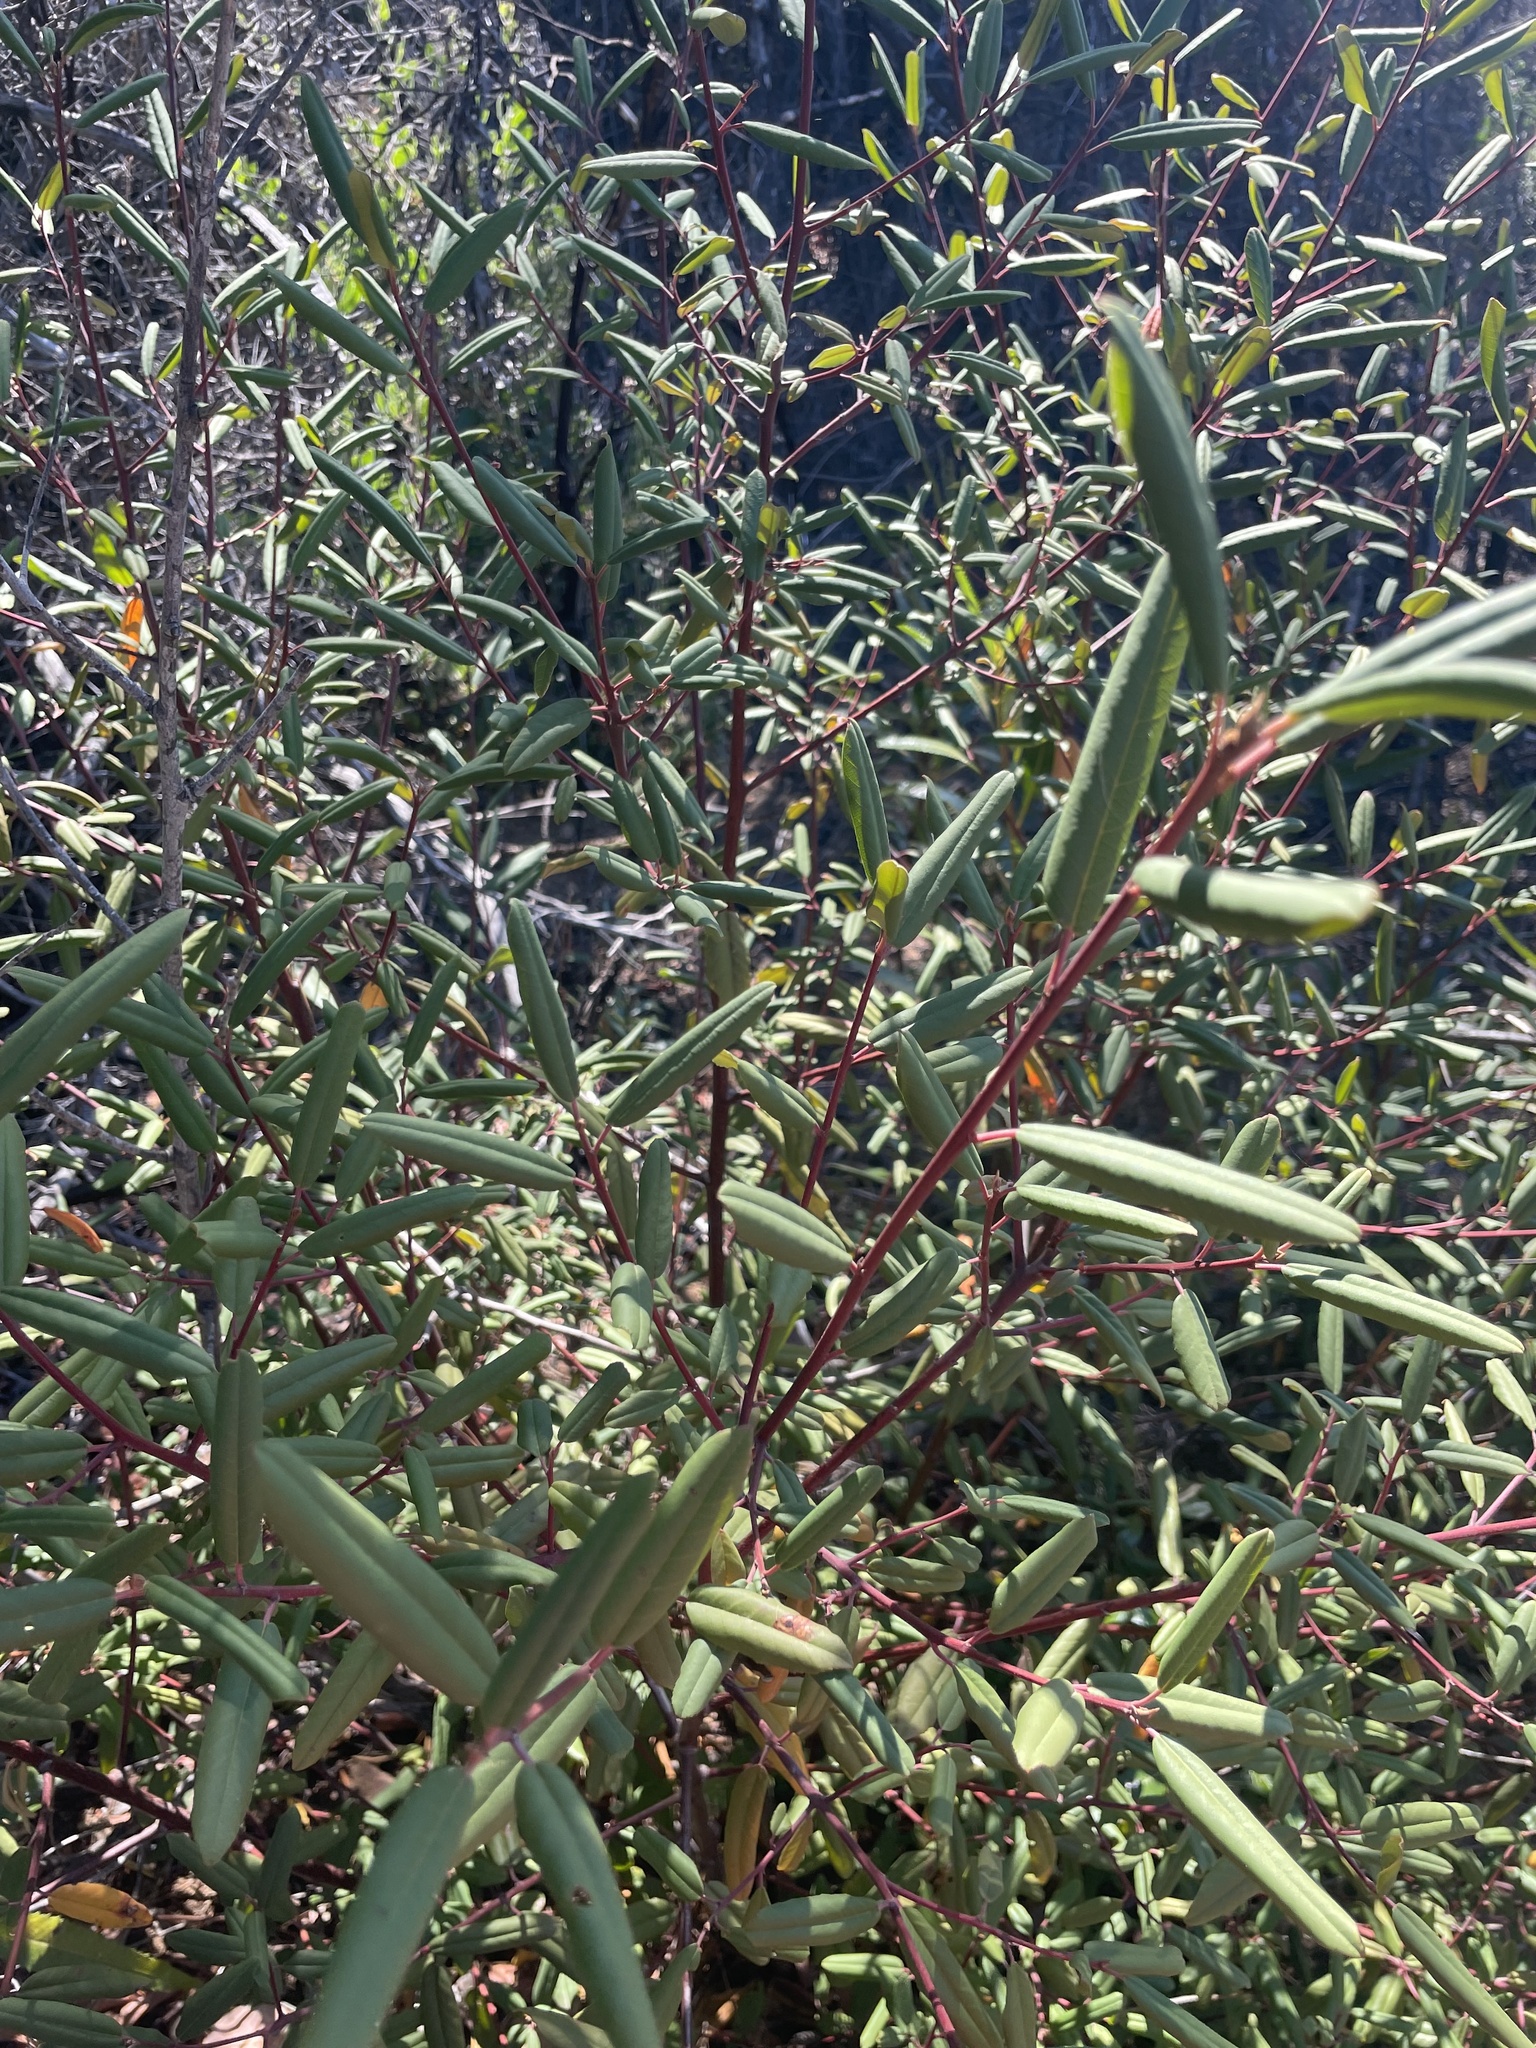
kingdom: Plantae
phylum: Tracheophyta
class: Magnoliopsida
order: Rosales
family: Rhamnaceae
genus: Frangula
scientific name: Frangula californica
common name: California buckthorn
